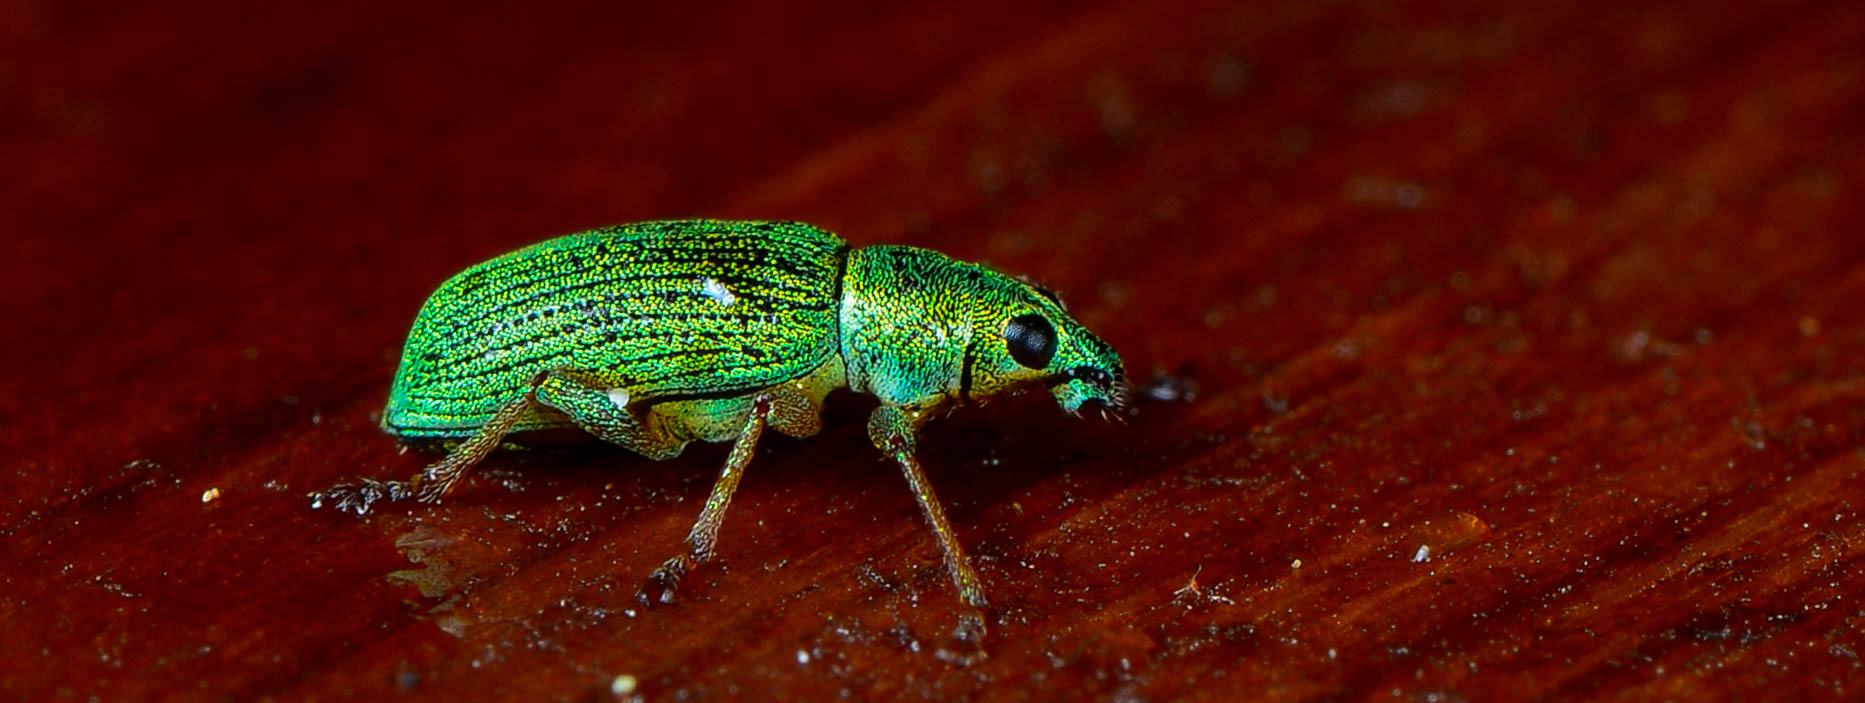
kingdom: Animalia
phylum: Arthropoda
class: Insecta
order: Coleoptera
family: Curculionidae
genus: Polydrusus
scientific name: Polydrusus formosus
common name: Weevil
